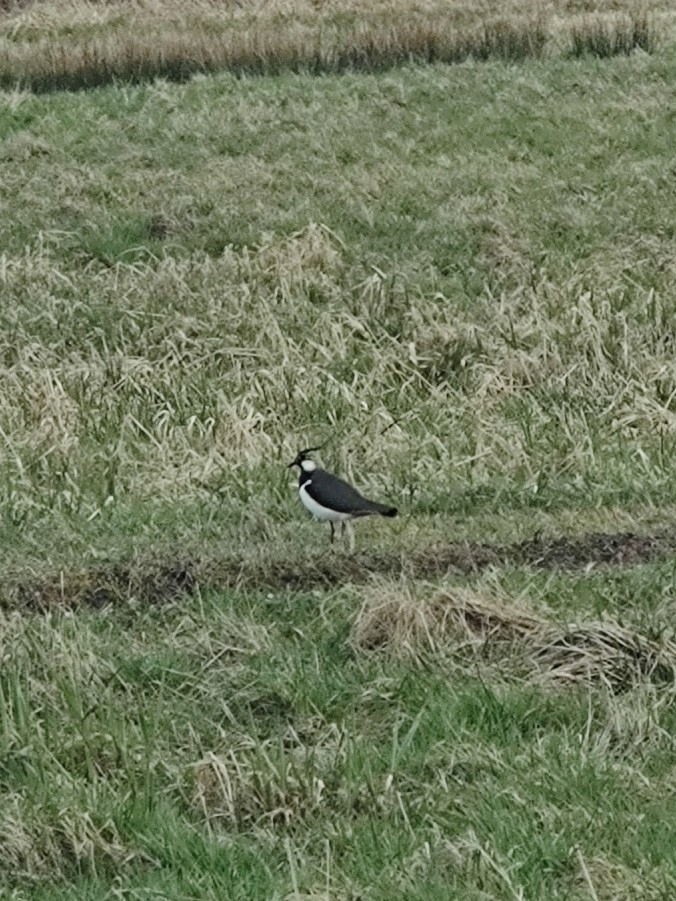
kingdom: Animalia
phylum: Chordata
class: Aves
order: Charadriiformes
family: Charadriidae
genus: Vanellus
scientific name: Vanellus vanellus
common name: Northern lapwing
